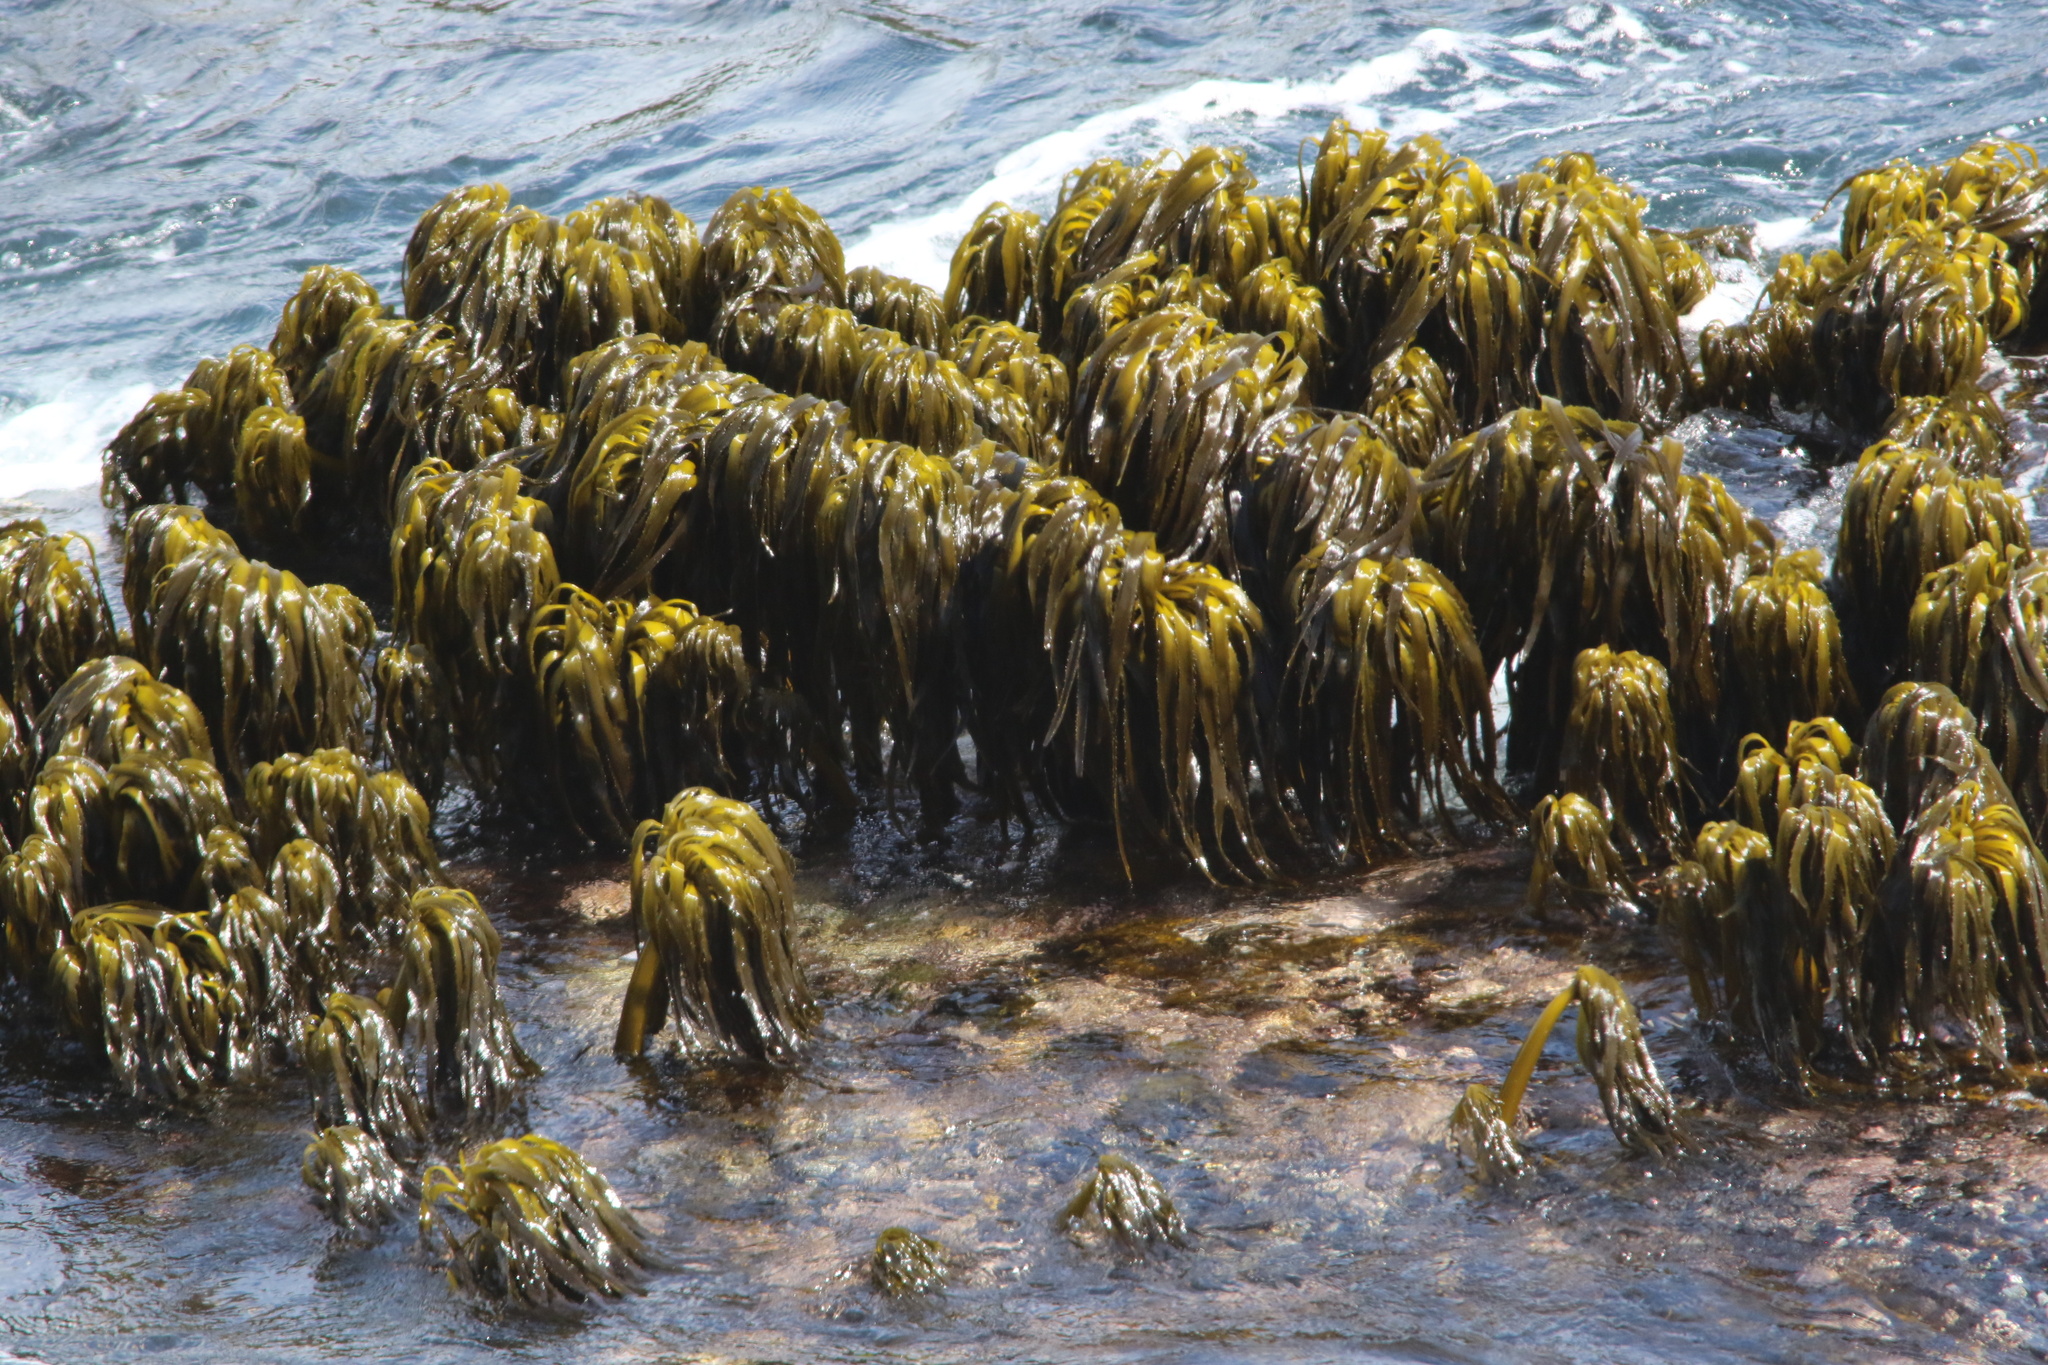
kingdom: Chromista
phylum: Ochrophyta
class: Phaeophyceae
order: Laminariales
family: Laminariaceae
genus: Postelsia
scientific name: Postelsia palmiformis
